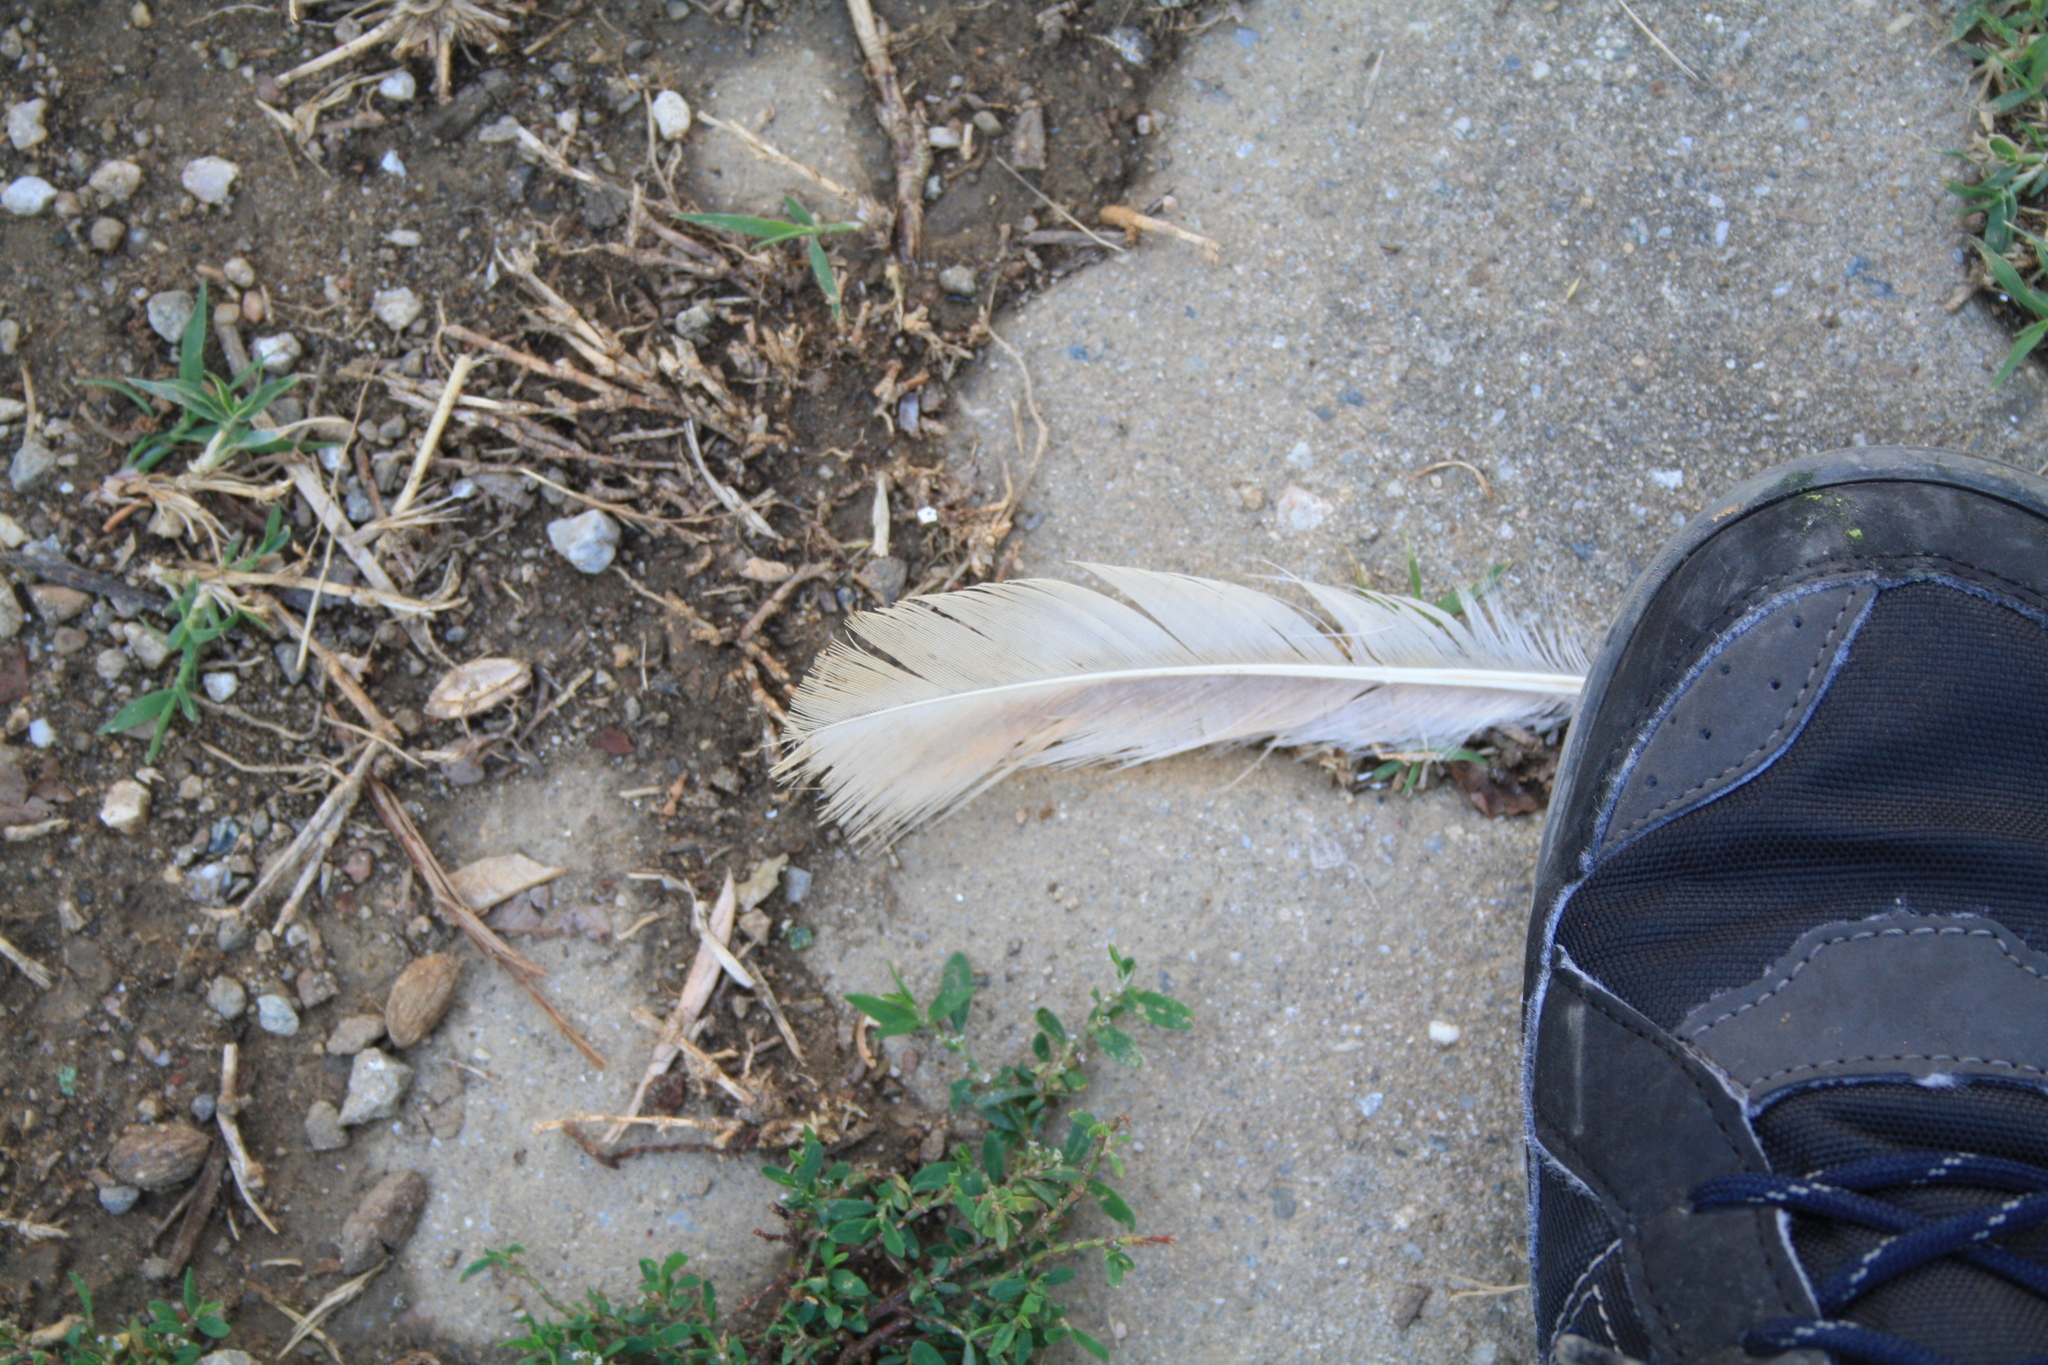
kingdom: Animalia
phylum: Chordata
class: Aves
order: Galliformes
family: Phasianidae
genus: Gallus
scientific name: Gallus gallus
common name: Red junglefowl
